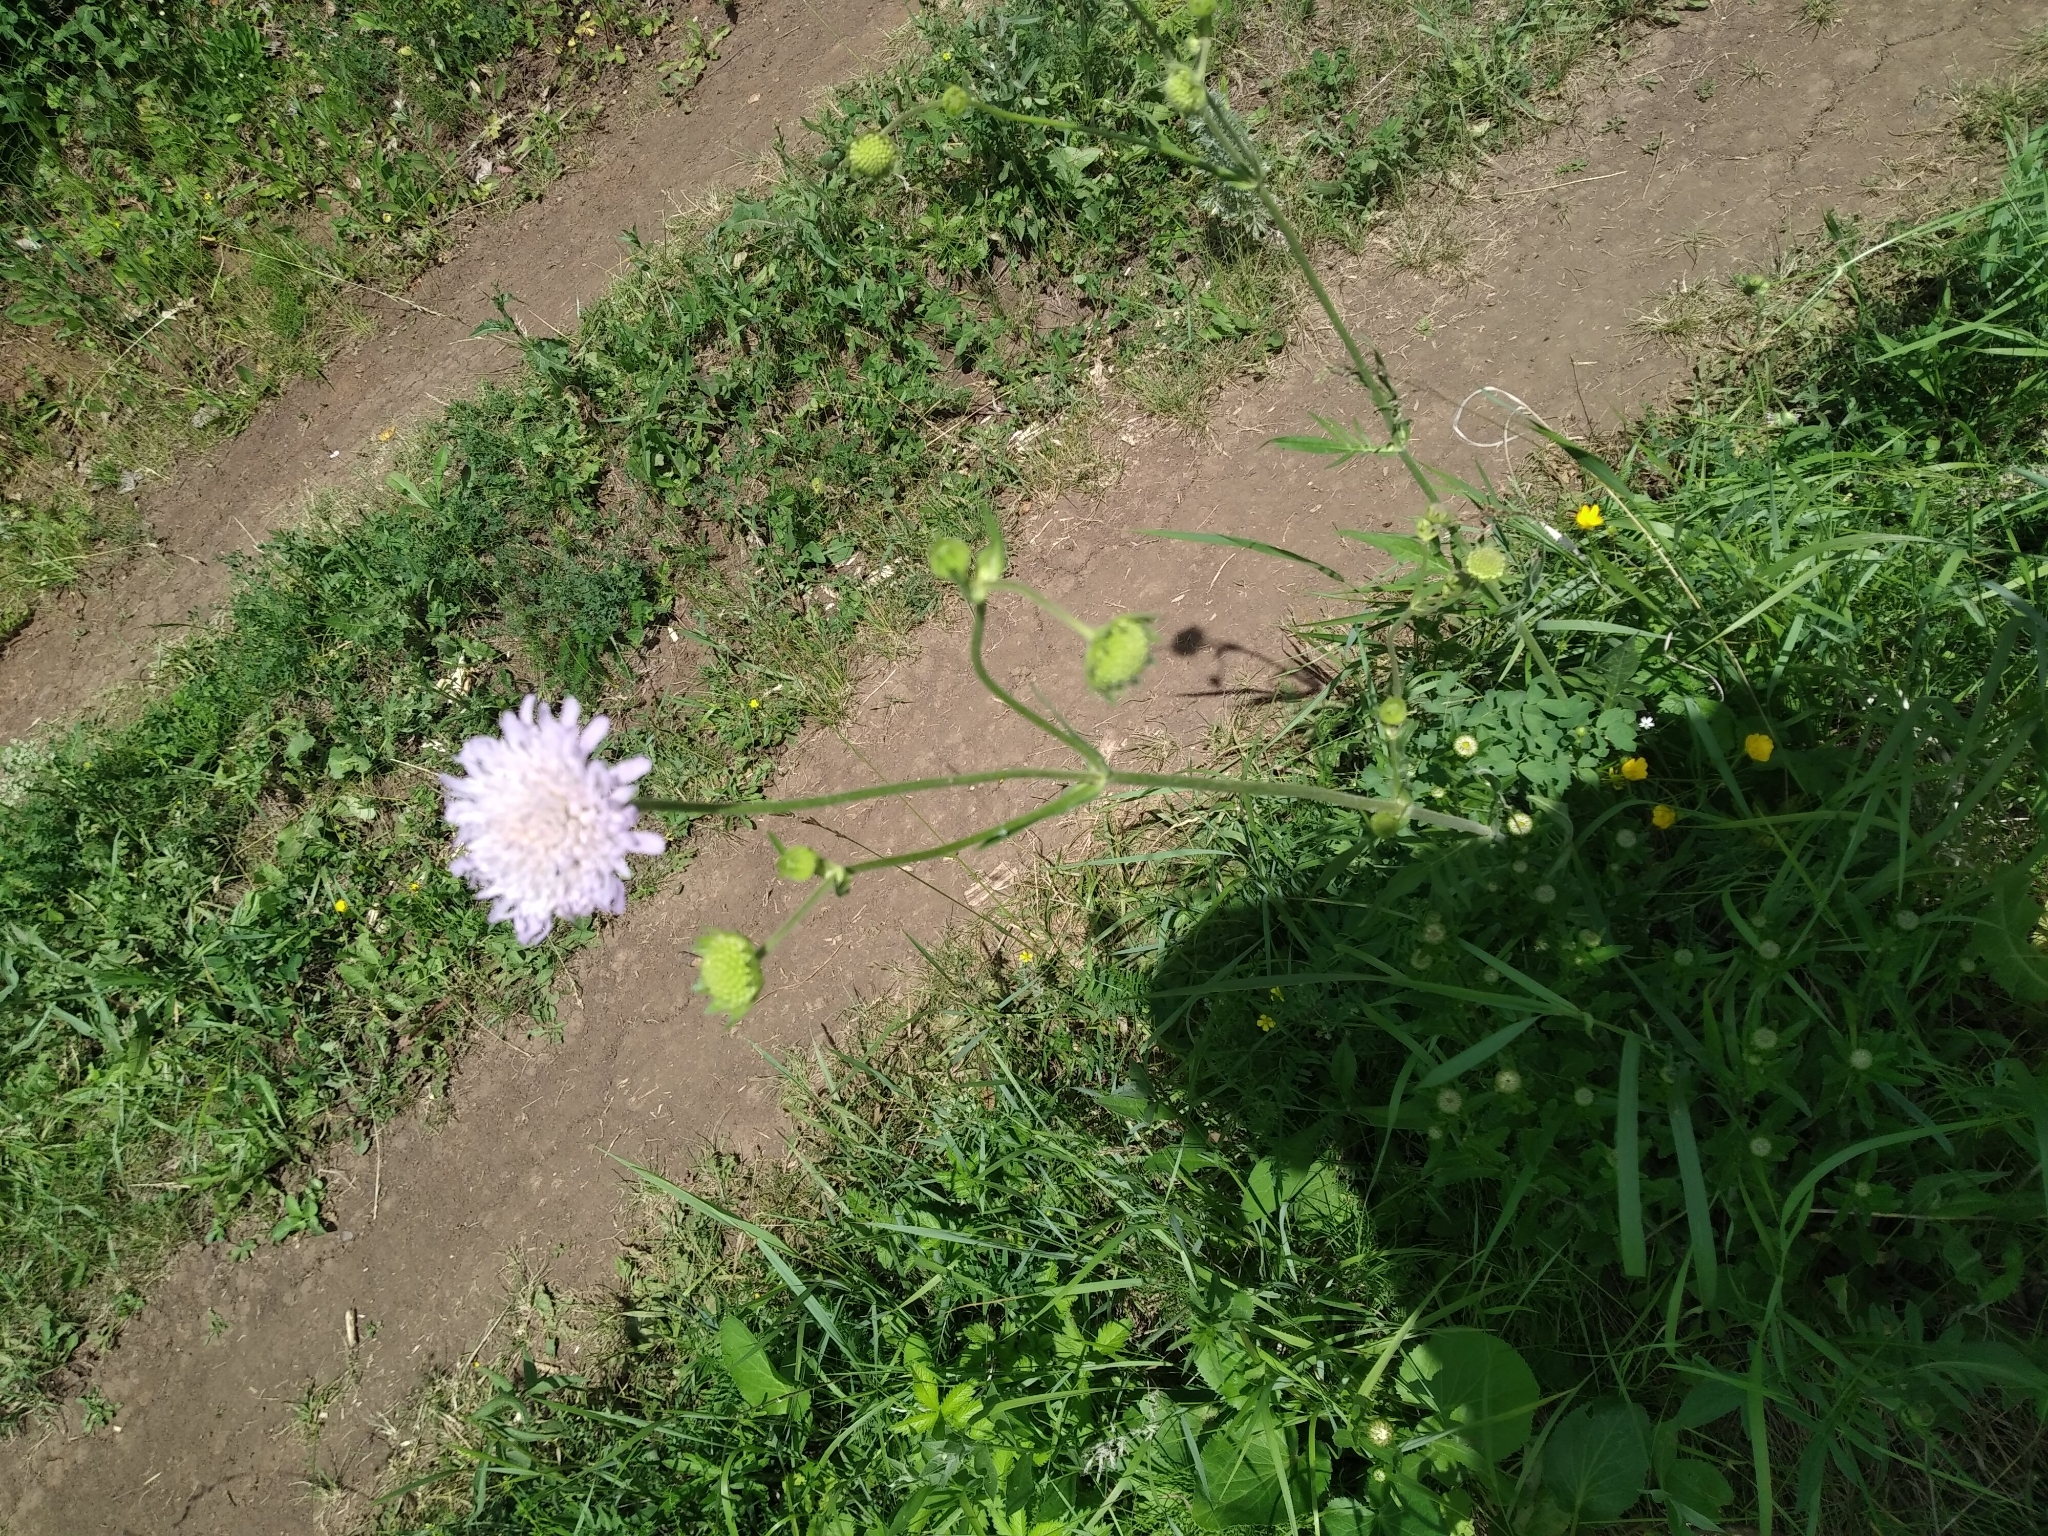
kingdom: Plantae
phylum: Tracheophyta
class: Magnoliopsida
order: Dipsacales
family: Caprifoliaceae
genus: Knautia
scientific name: Knautia arvensis
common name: Field scabiosa
